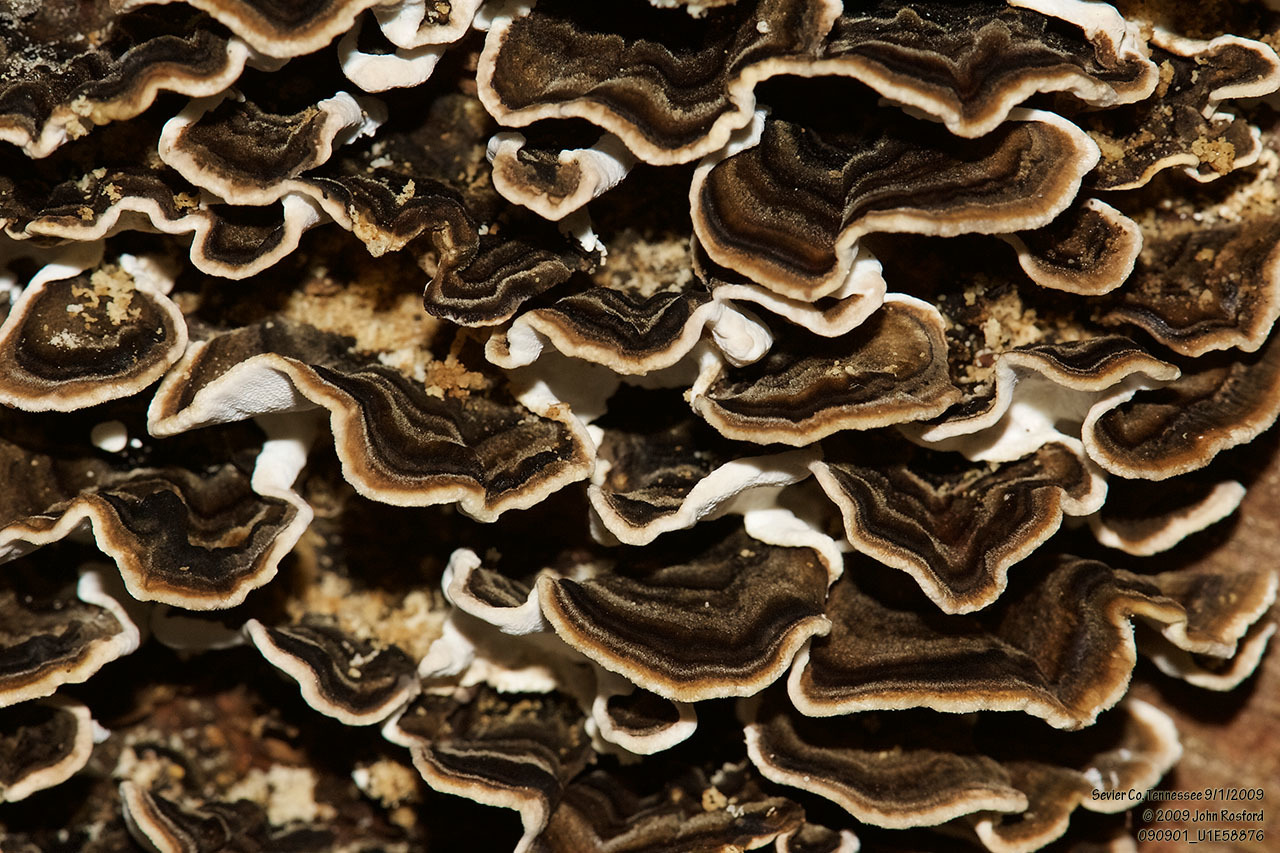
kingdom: Fungi
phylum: Basidiomycota
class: Agaricomycetes
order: Polyporales
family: Polyporaceae
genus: Trametes
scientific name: Trametes versicolor
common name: Turkeytail
